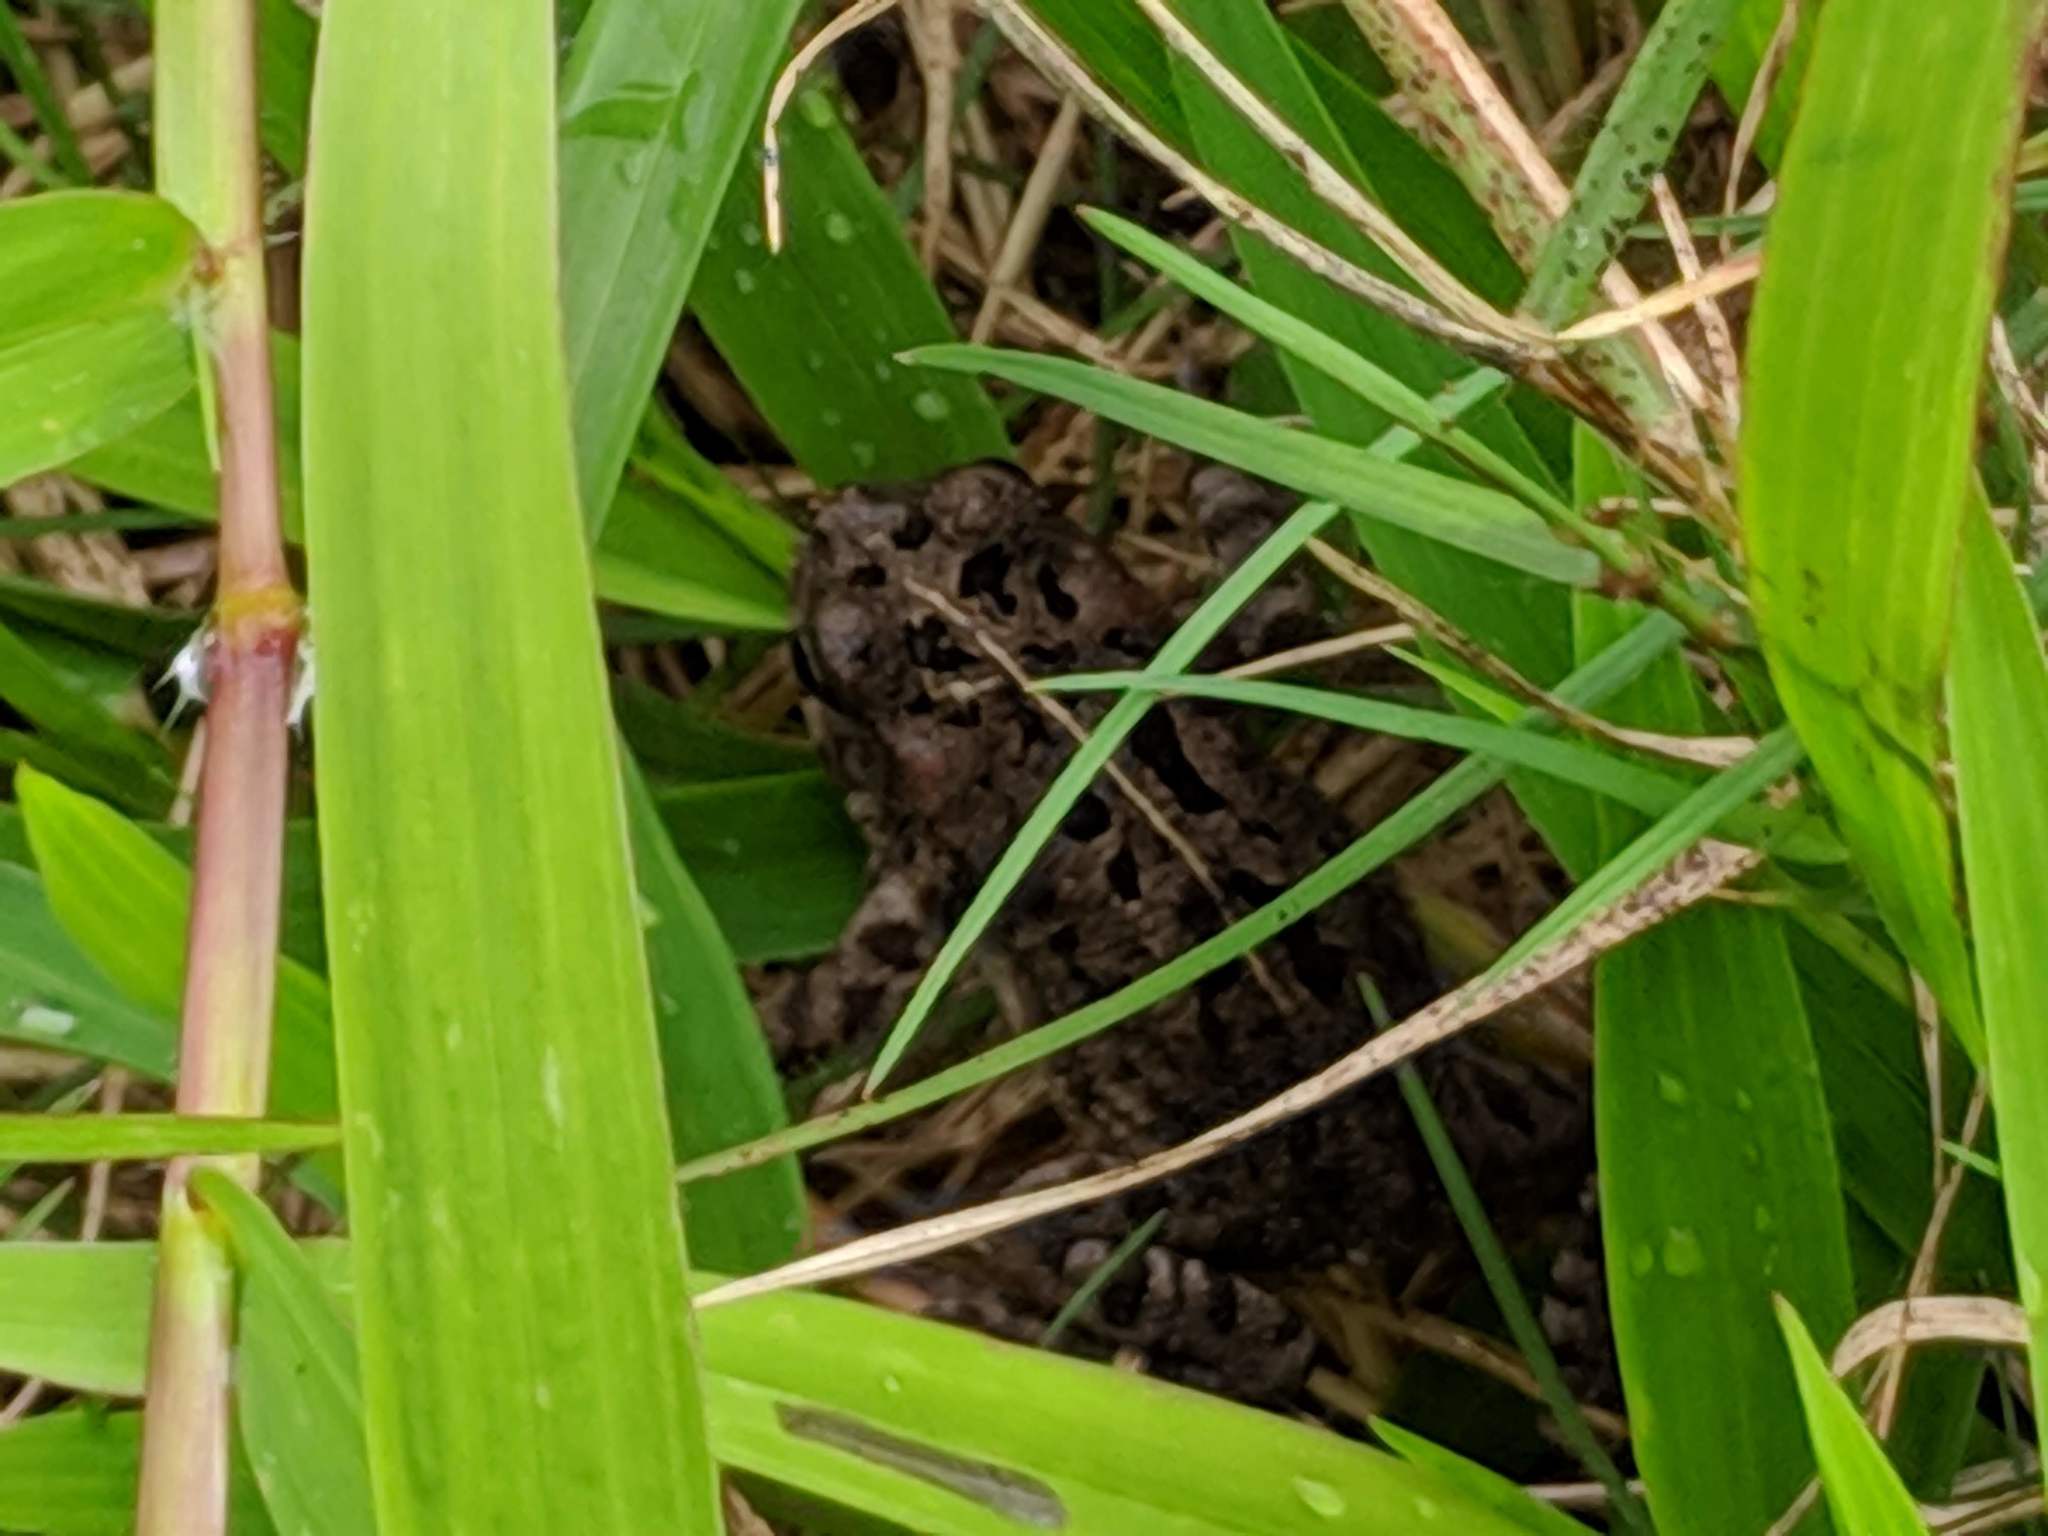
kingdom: Animalia
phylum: Chordata
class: Amphibia
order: Anura
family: Bufonidae
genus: Sclerophrys
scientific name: Sclerophrys gutturalis
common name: African common toad
